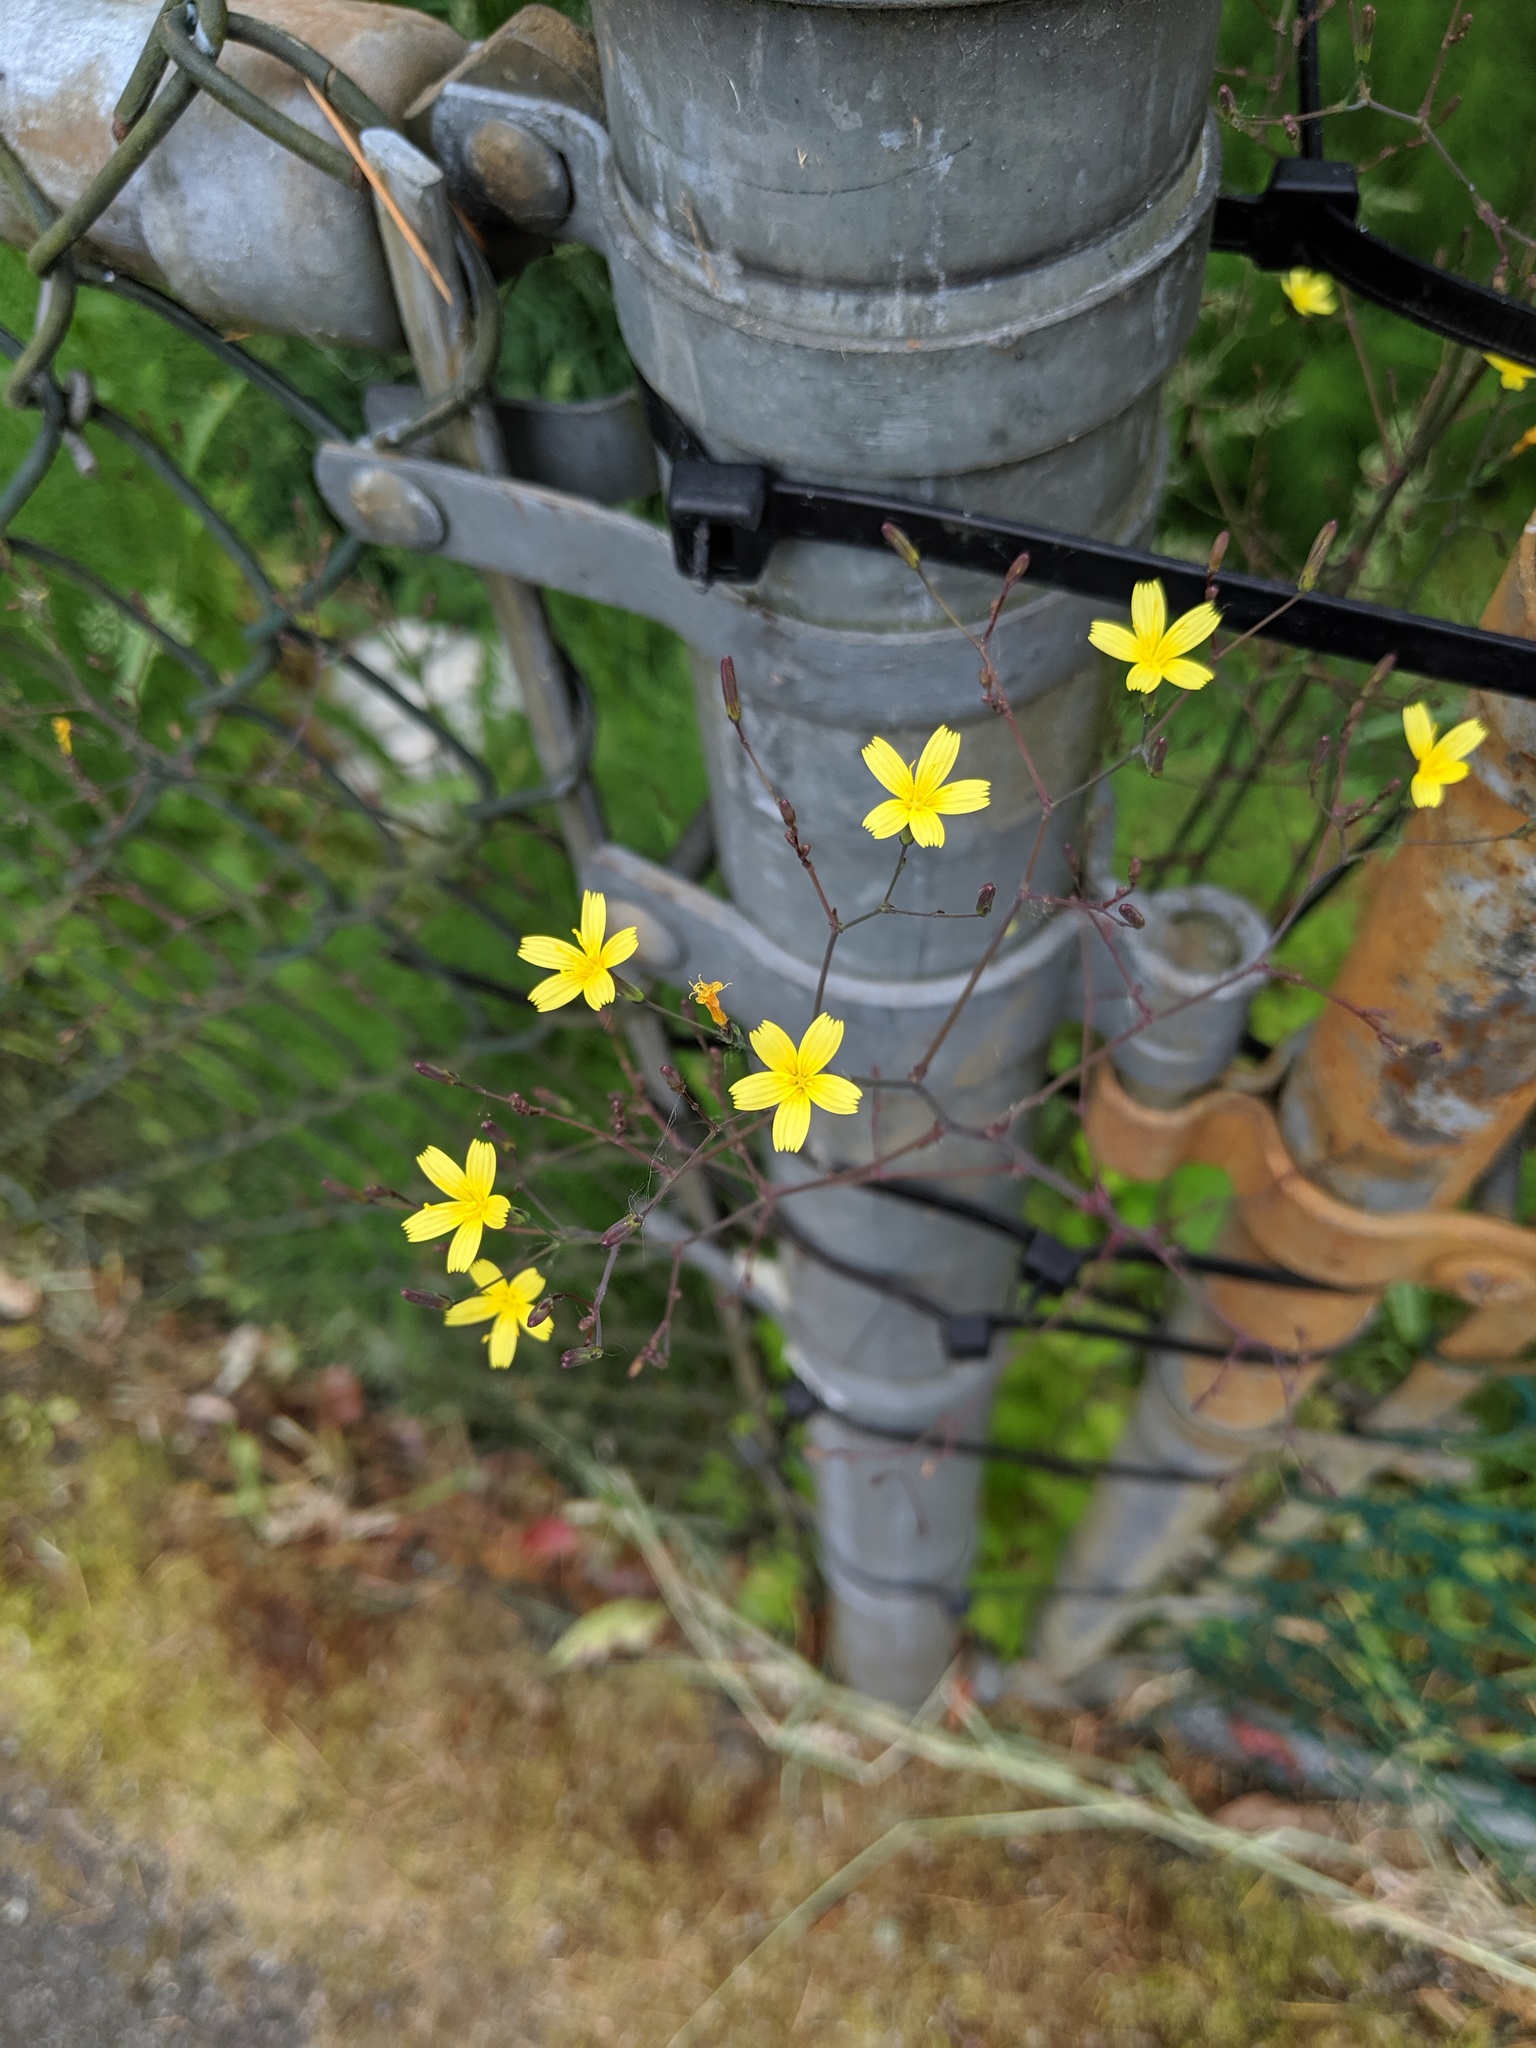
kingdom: Plantae
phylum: Tracheophyta
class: Magnoliopsida
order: Asterales
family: Asteraceae
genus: Mycelis
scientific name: Mycelis muralis
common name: Wall lettuce
